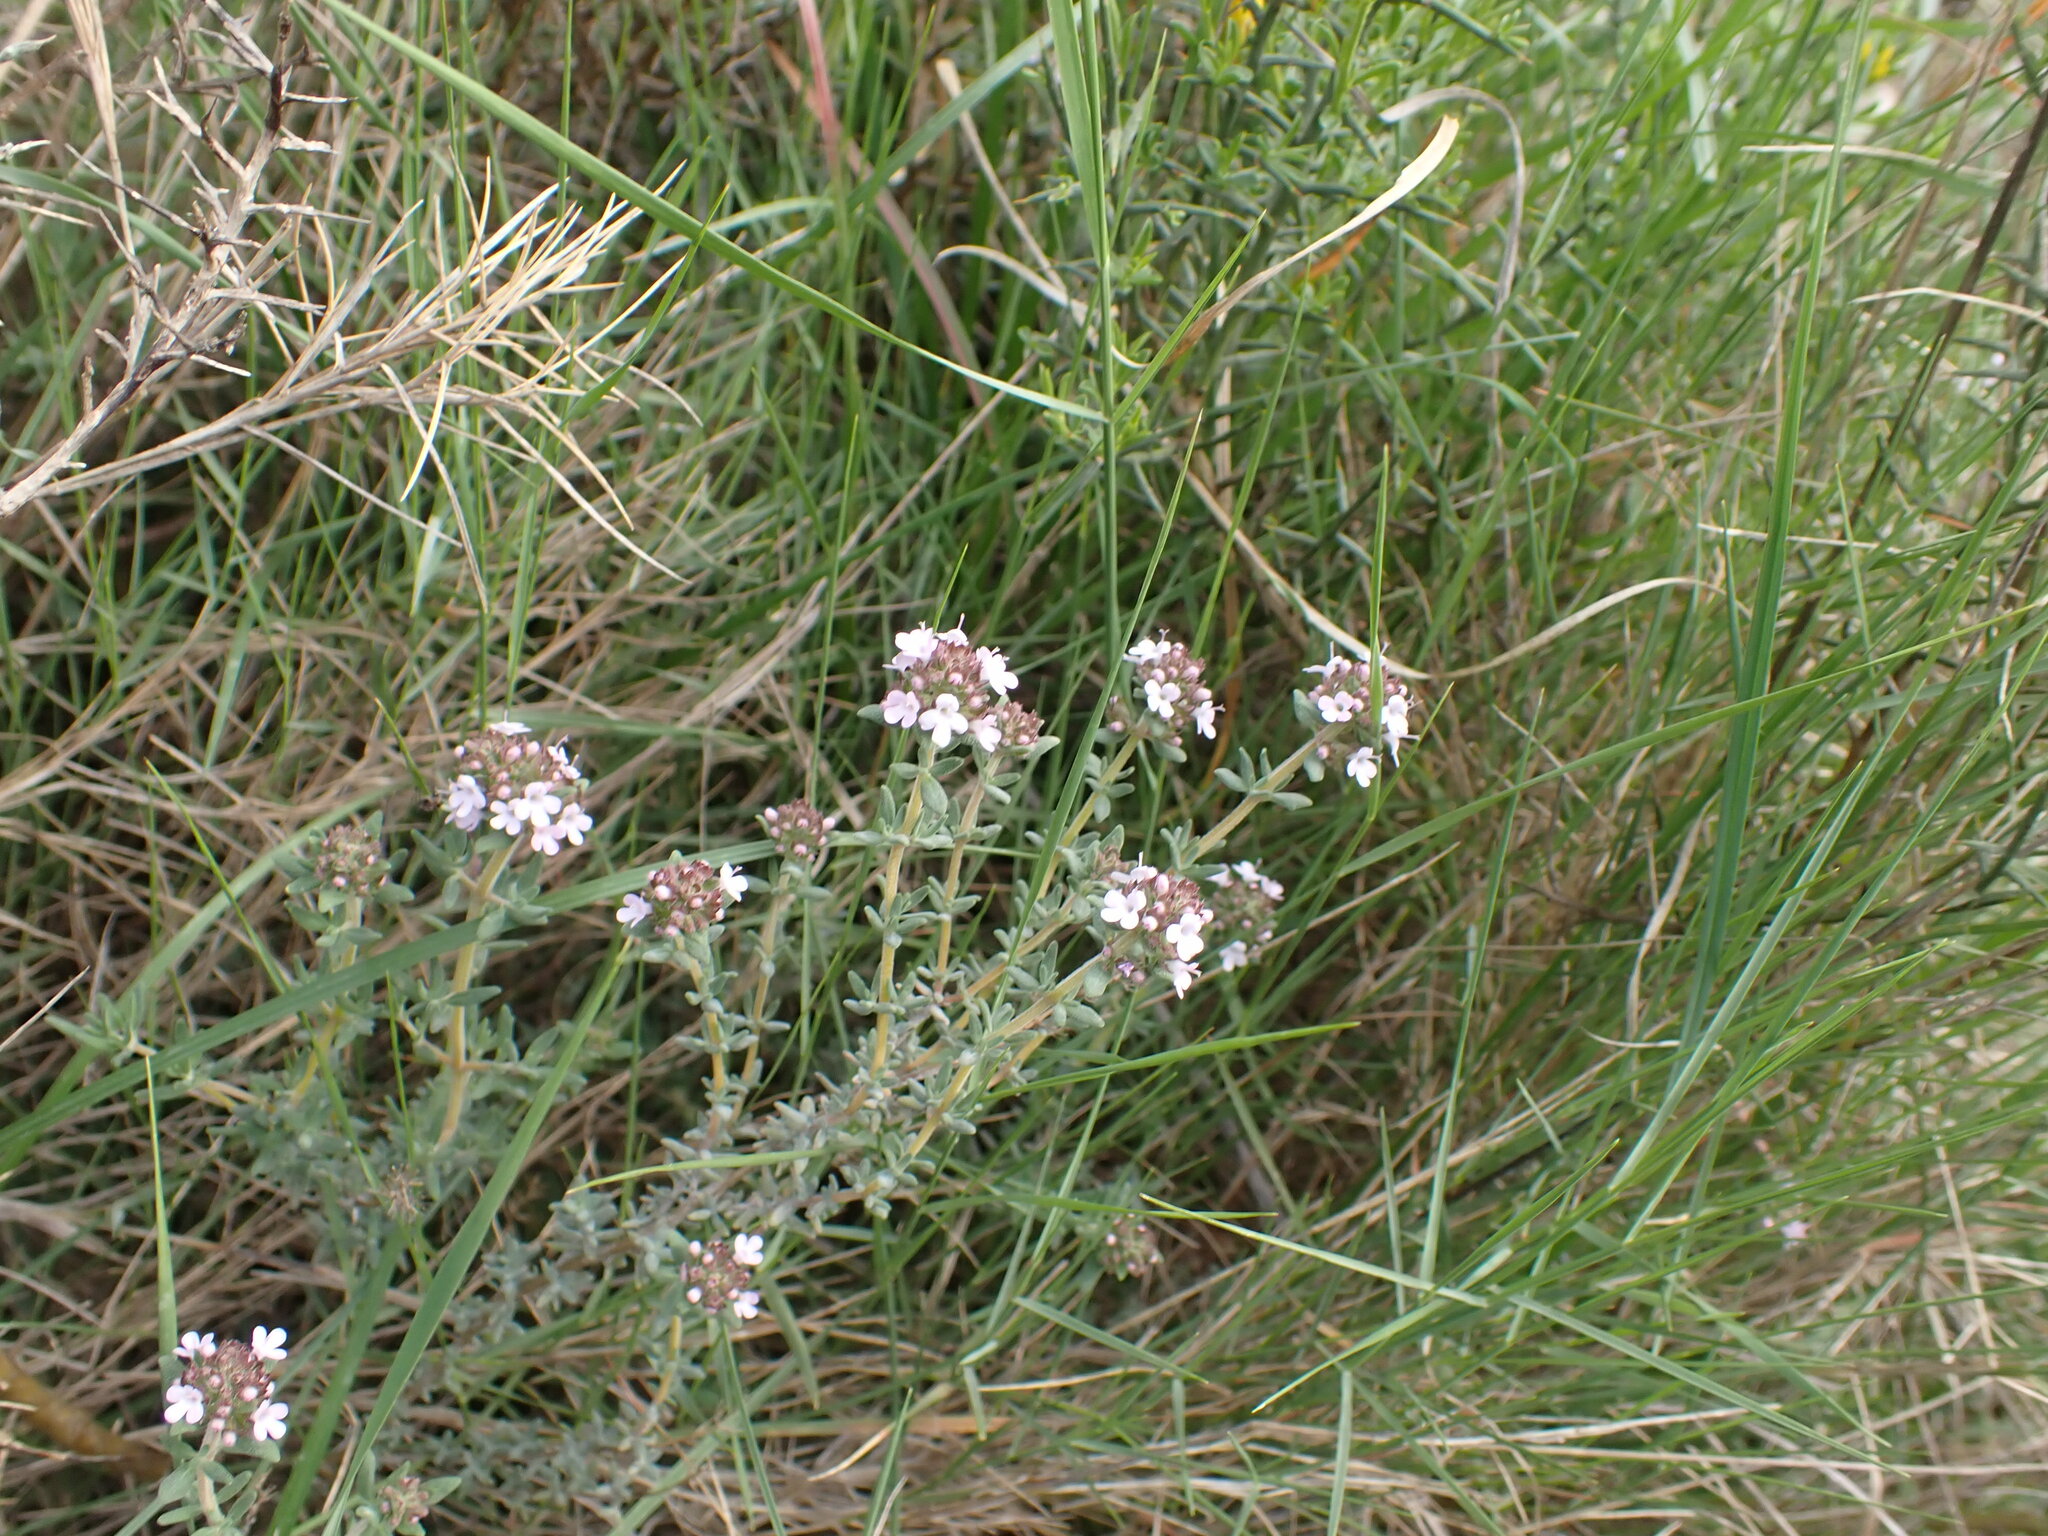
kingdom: Plantae
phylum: Tracheophyta
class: Magnoliopsida
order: Lamiales
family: Lamiaceae
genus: Thymus
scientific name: Thymus vulgaris
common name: Garden thyme
